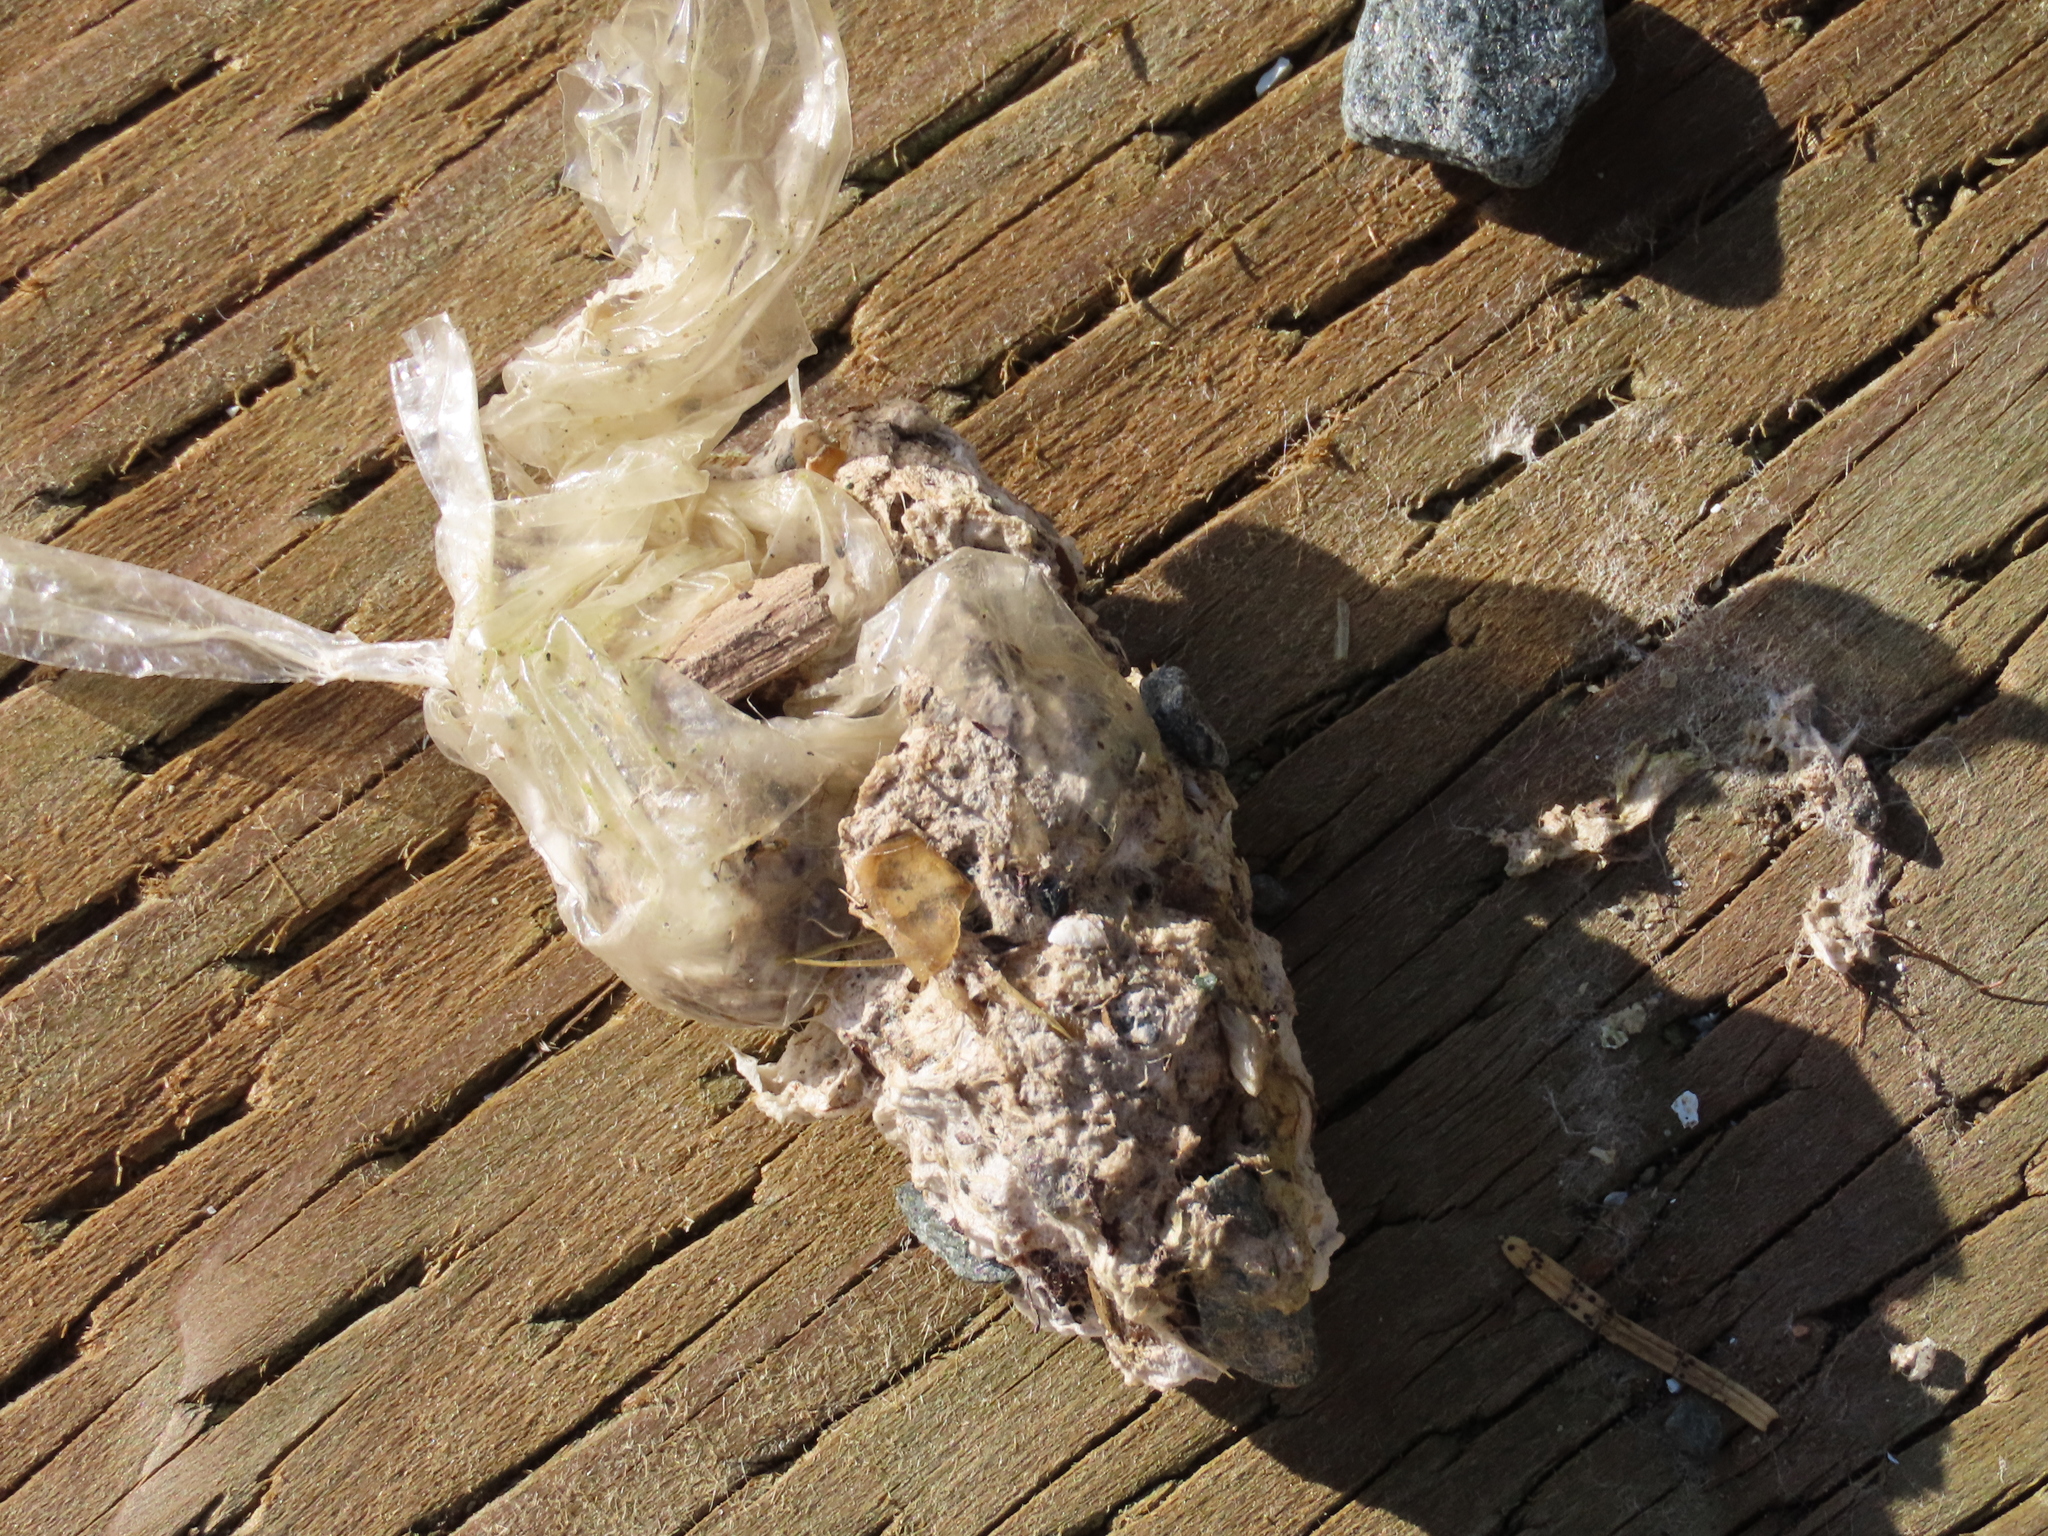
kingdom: Animalia
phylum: Chordata
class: Aves
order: Passeriformes
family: Corvidae
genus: Corvus
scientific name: Corvus corax
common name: Common raven
